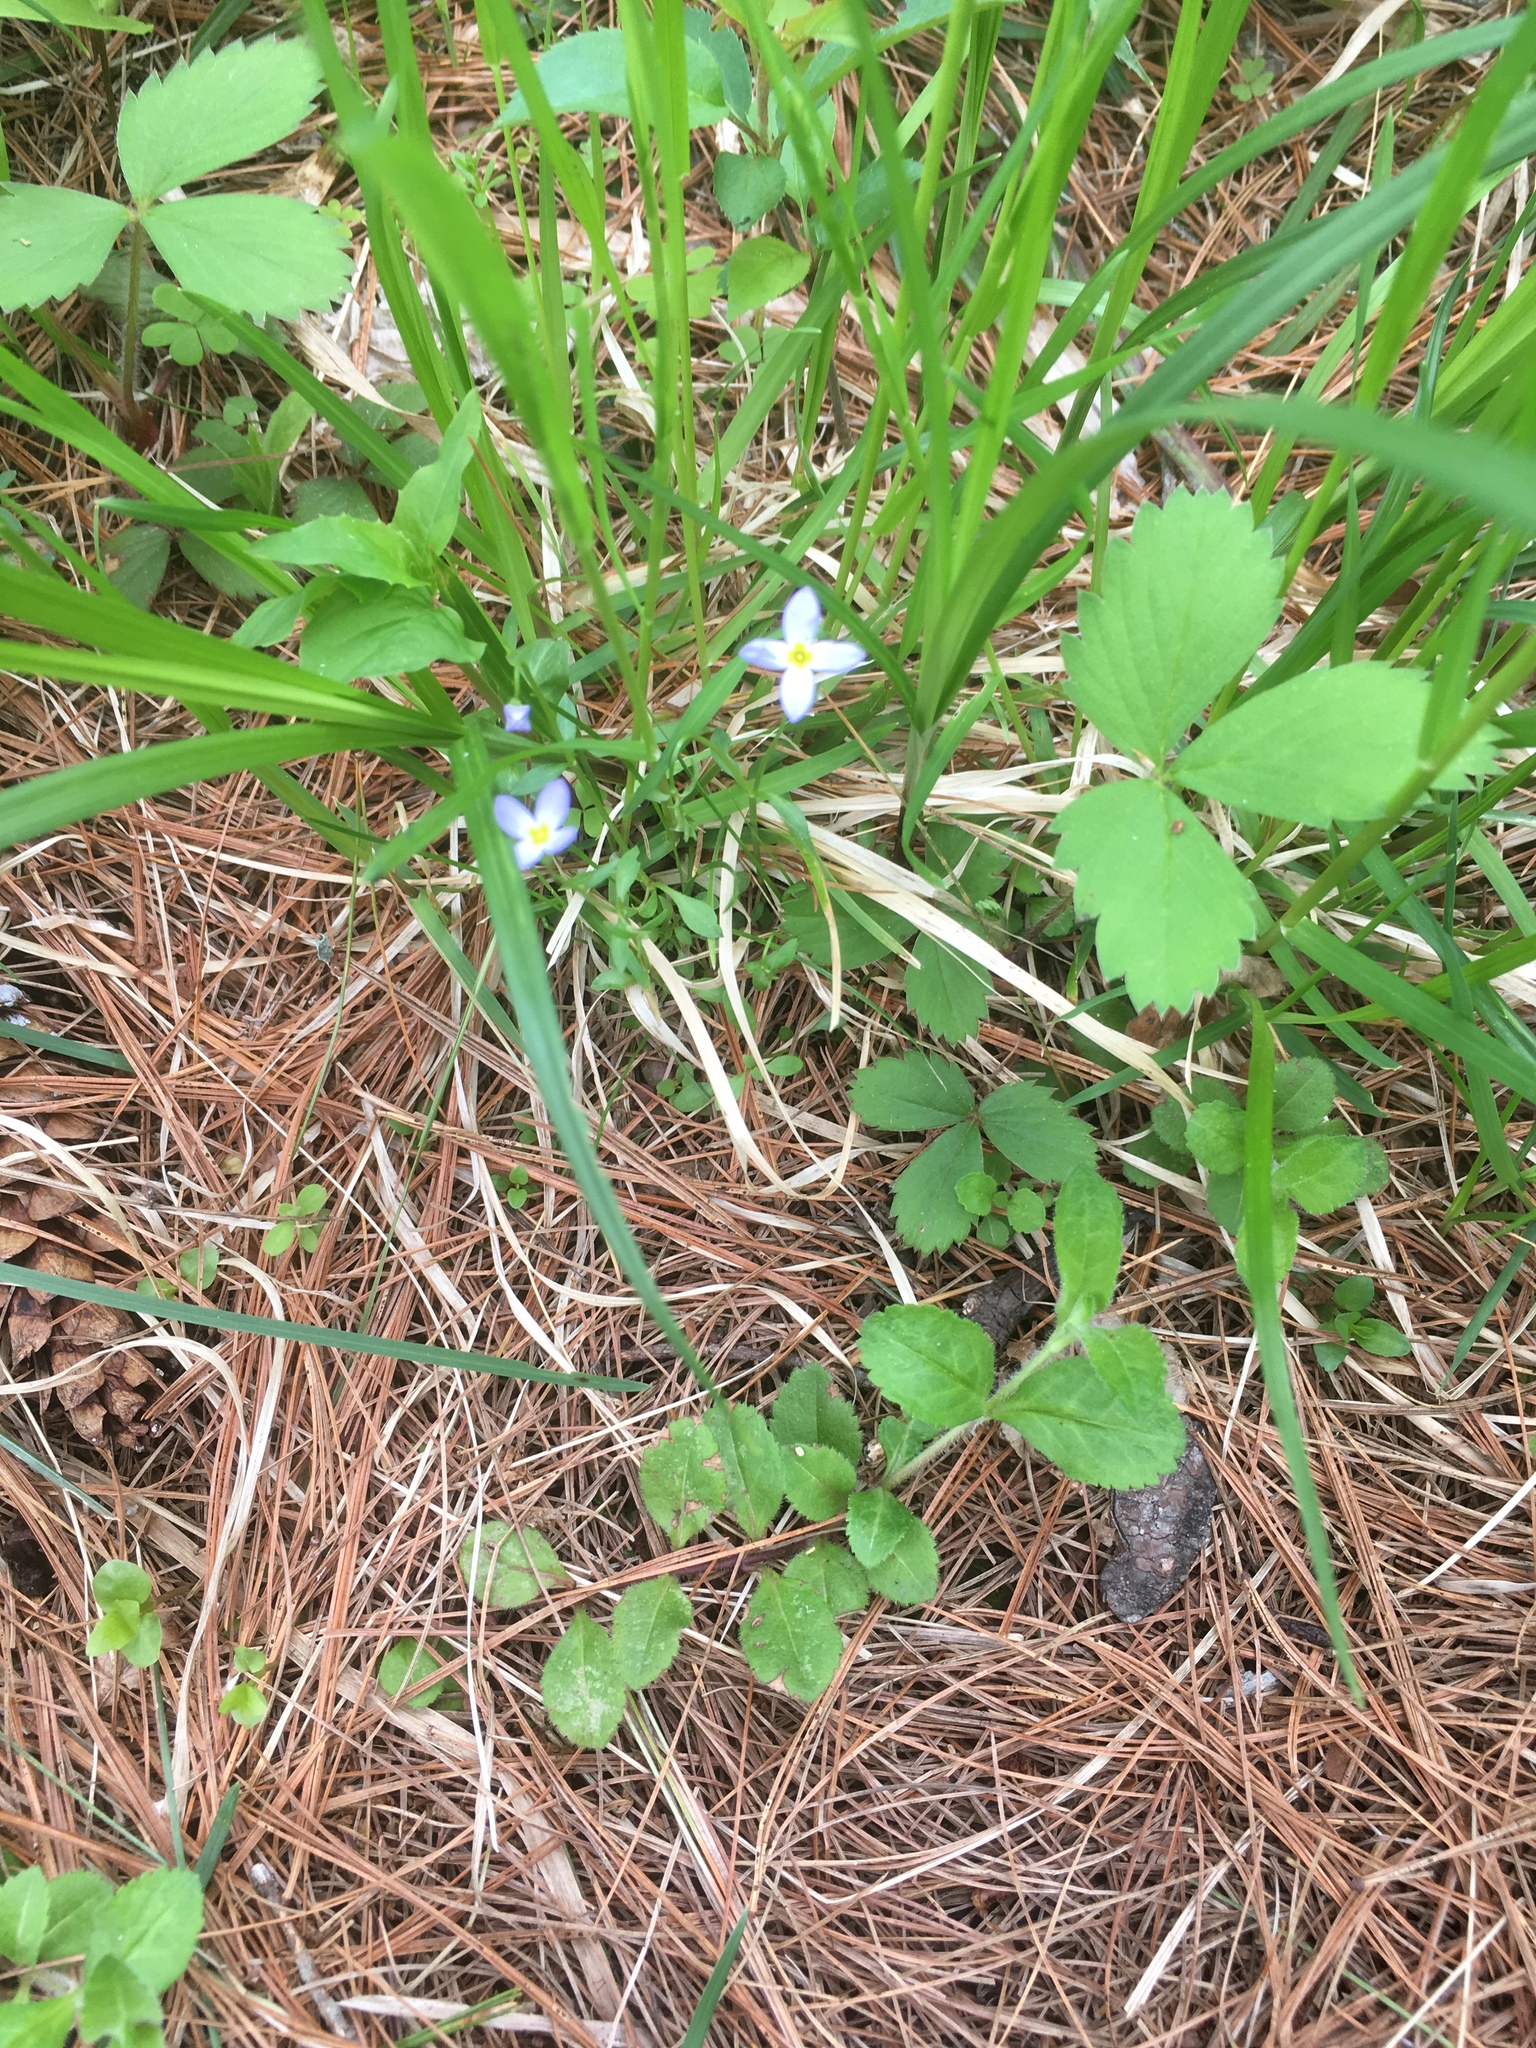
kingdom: Plantae
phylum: Tracheophyta
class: Magnoliopsida
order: Gentianales
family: Rubiaceae
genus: Houstonia
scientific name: Houstonia caerulea
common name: Bluets
